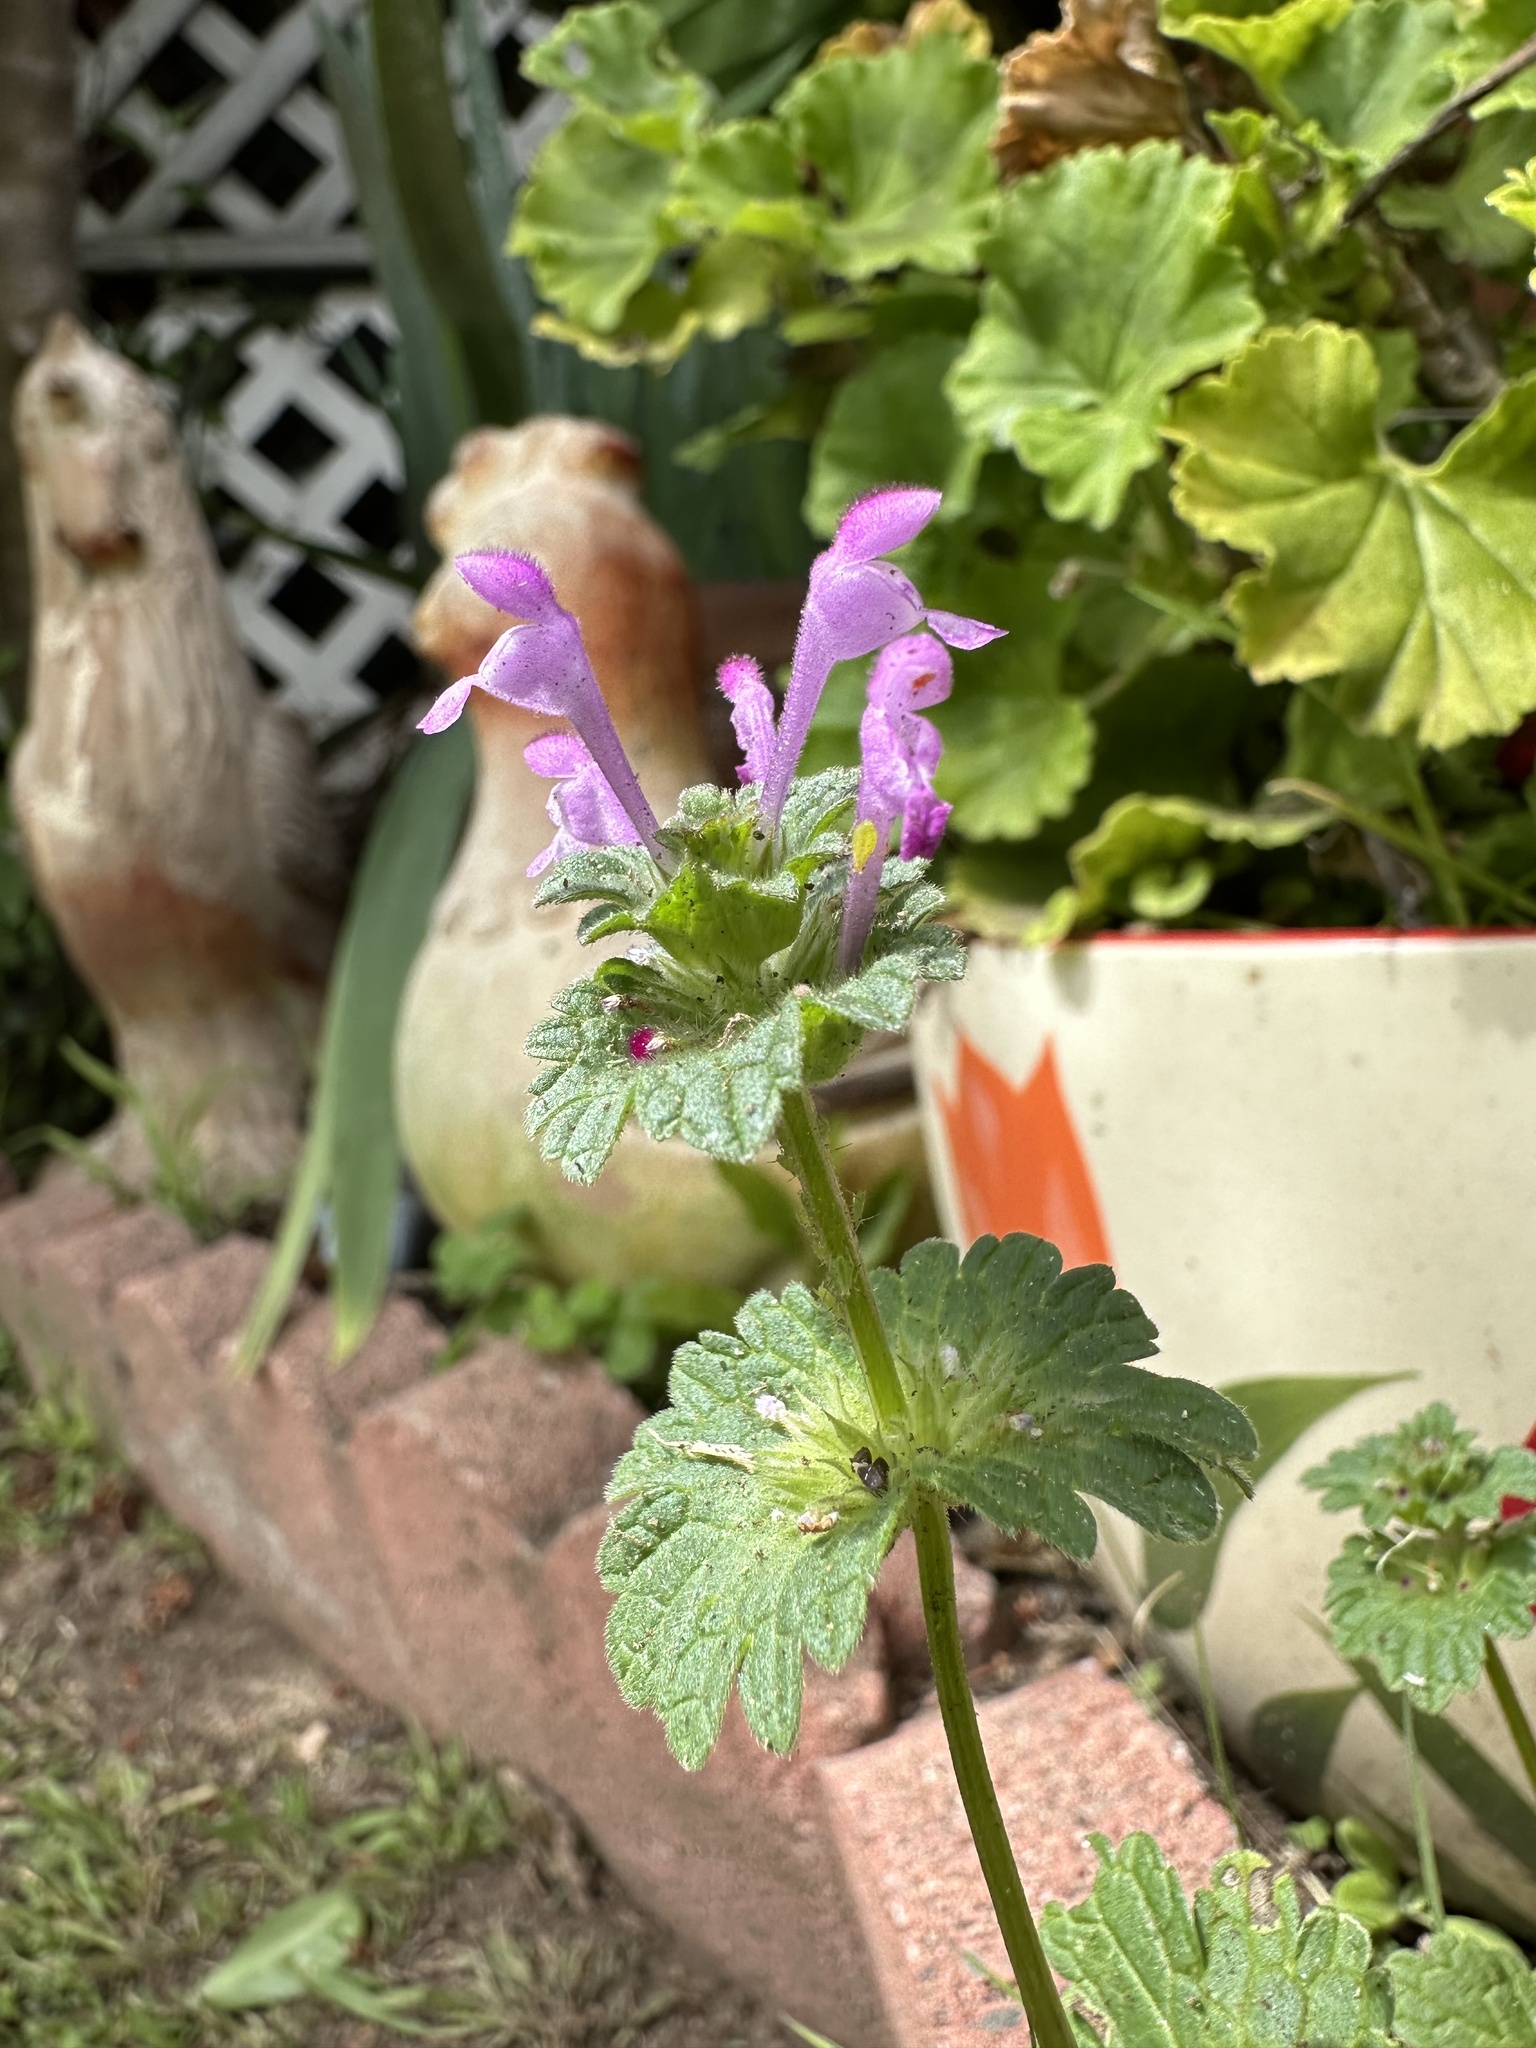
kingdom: Plantae
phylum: Tracheophyta
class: Magnoliopsida
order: Lamiales
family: Lamiaceae
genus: Lamium
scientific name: Lamium amplexicaule
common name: Henbit dead-nettle
